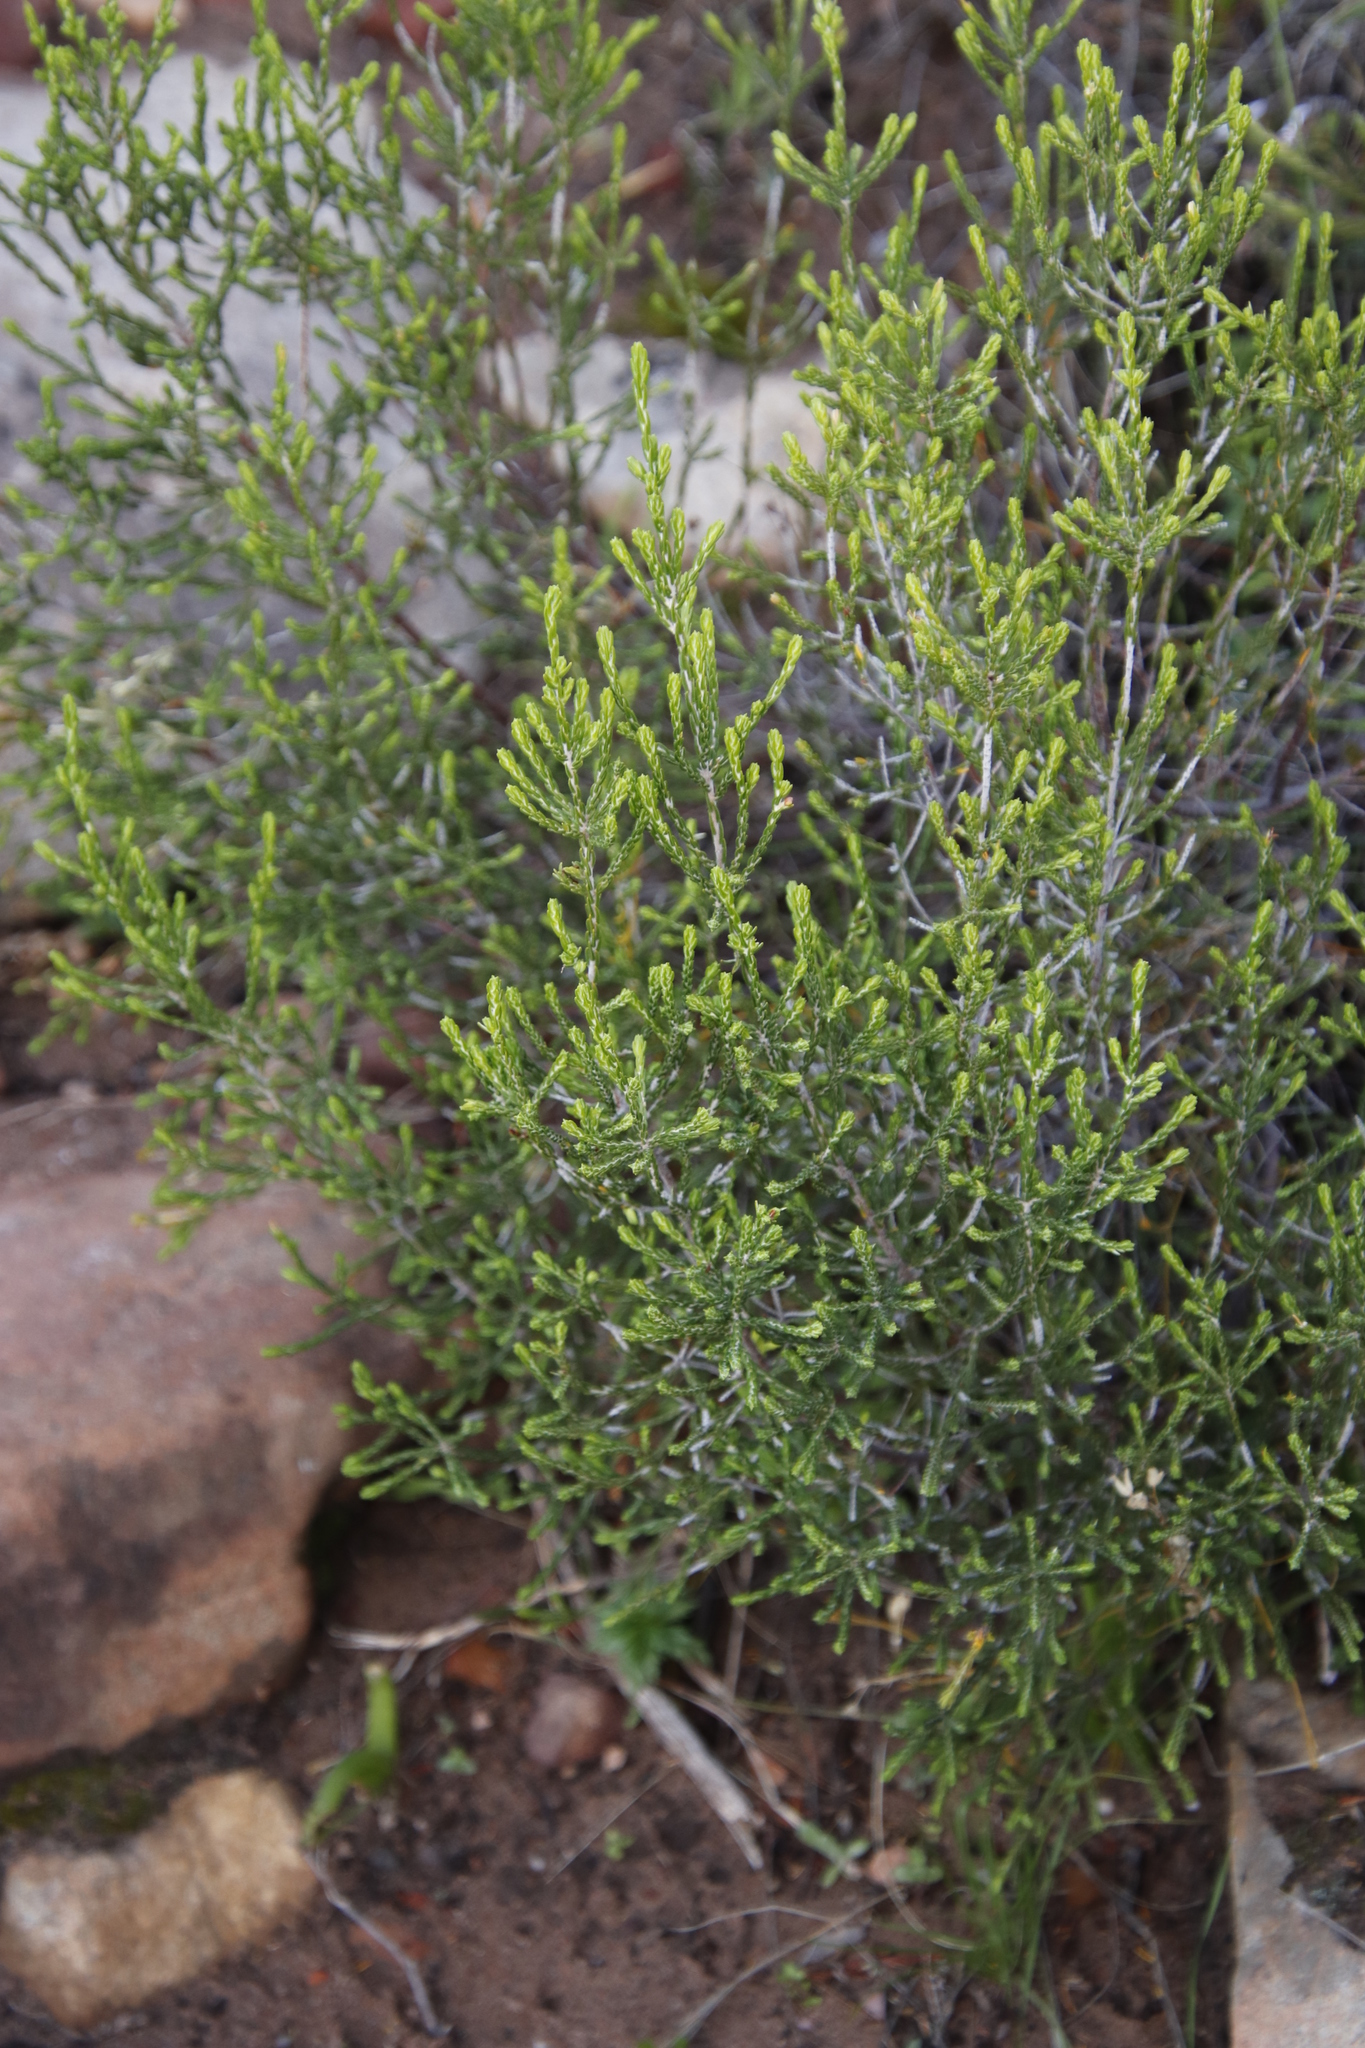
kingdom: Plantae
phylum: Tracheophyta
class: Magnoliopsida
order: Malvales
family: Thymelaeaceae
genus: Passerina
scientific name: Passerina corymbosa
